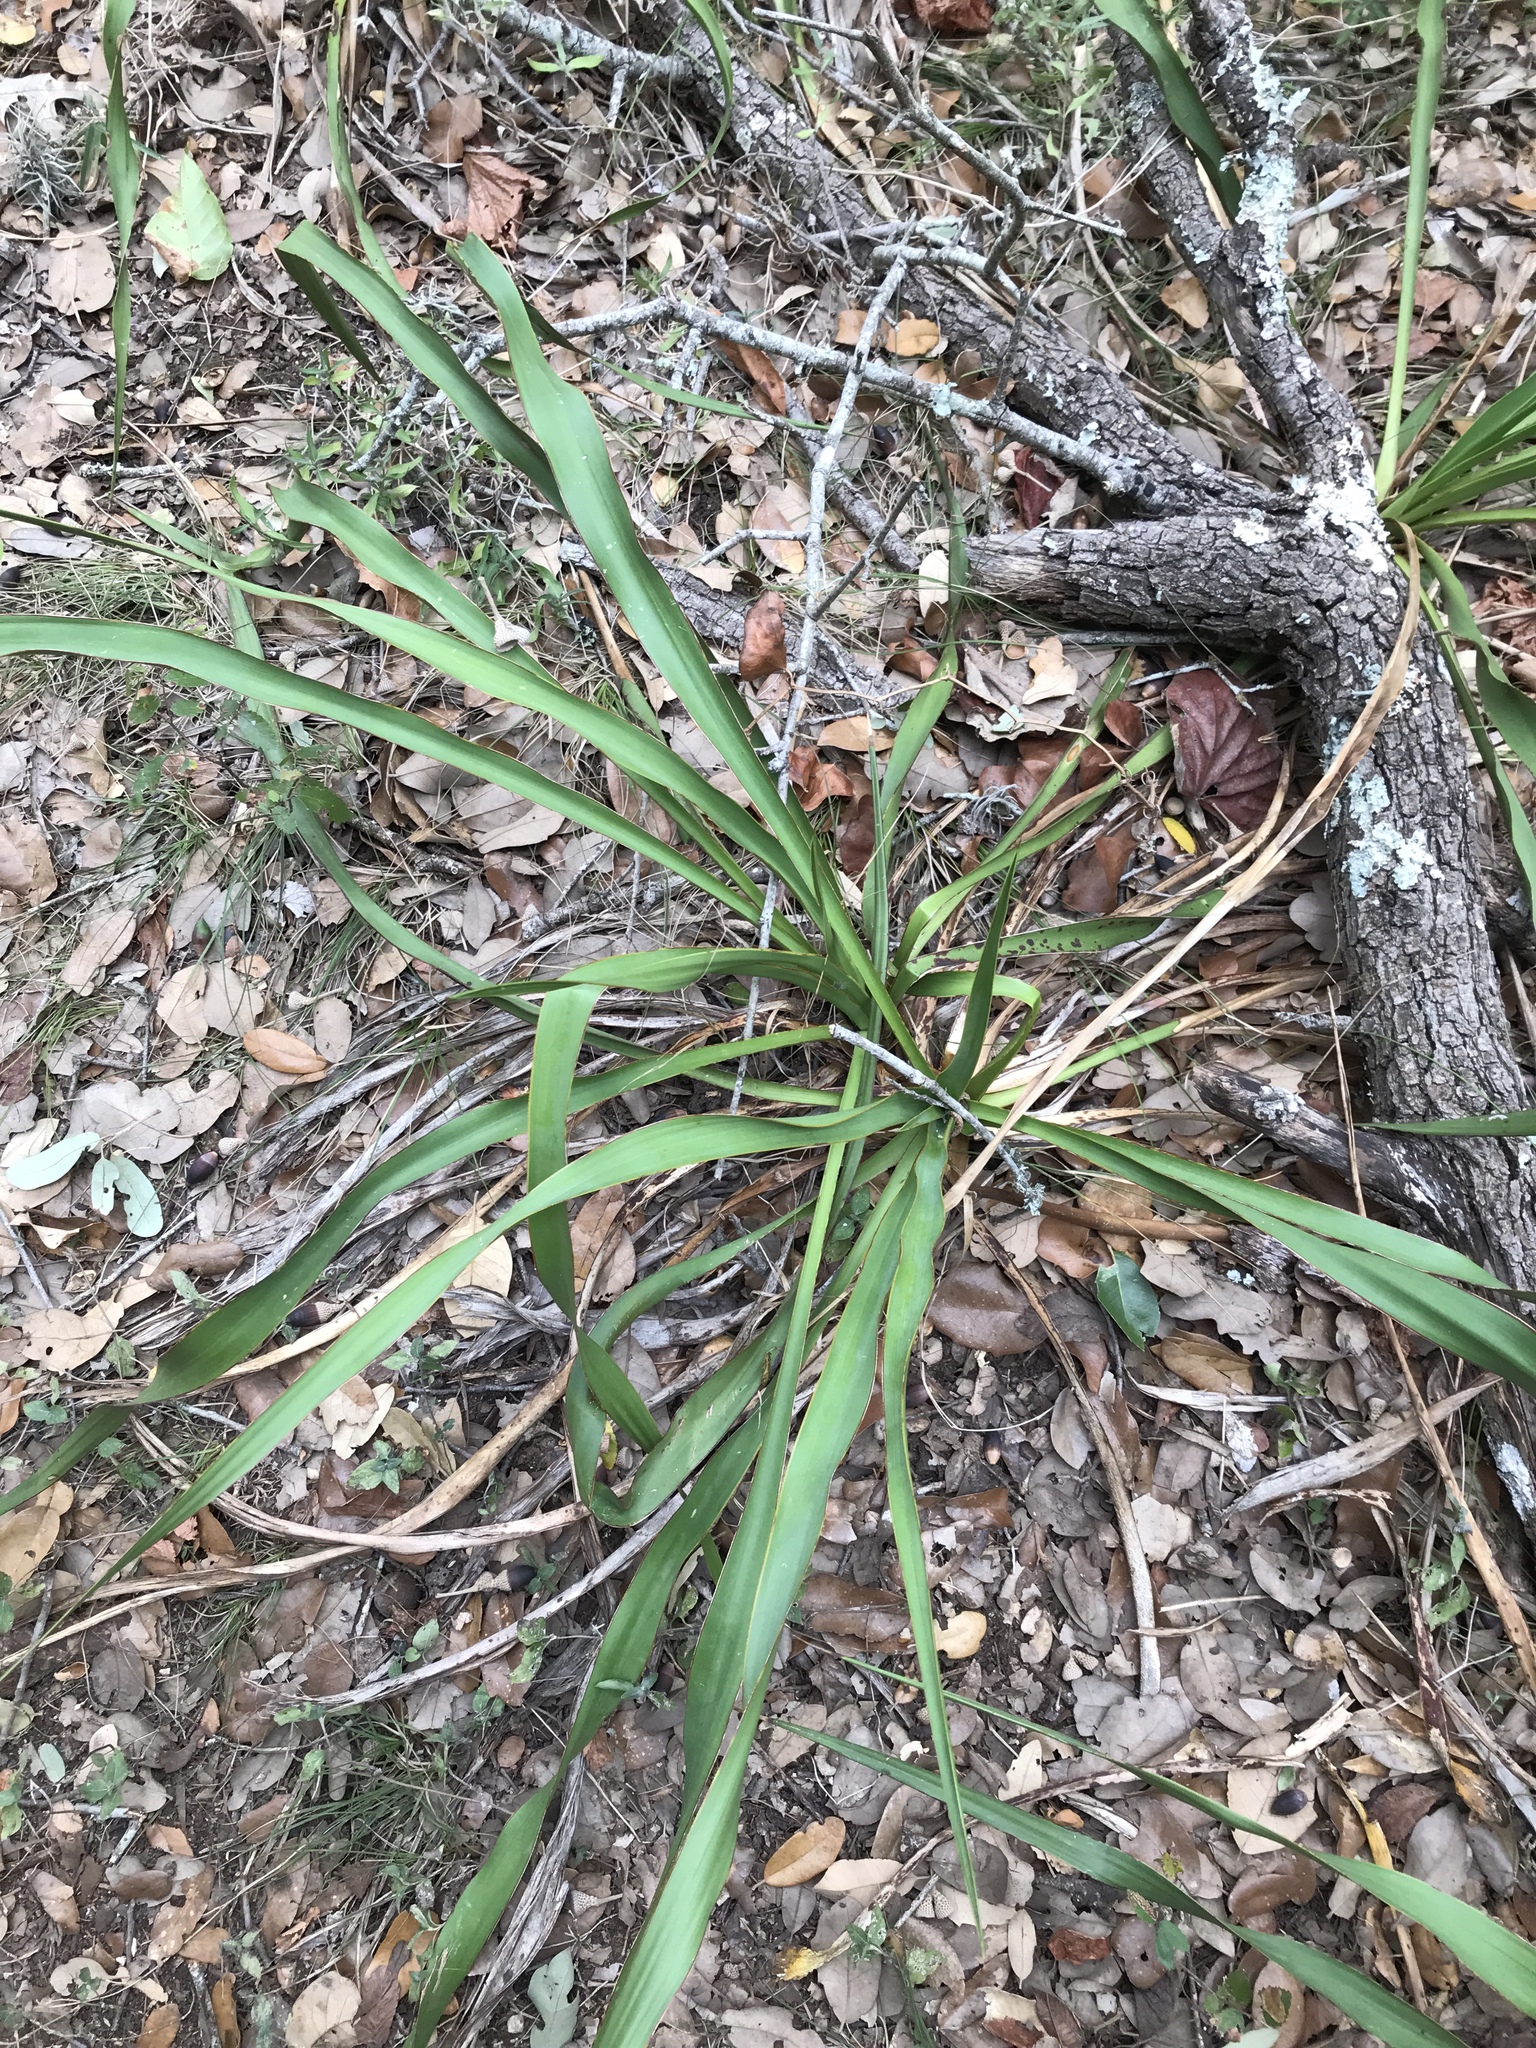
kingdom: Plantae
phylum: Tracheophyta
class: Liliopsida
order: Asparagales
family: Asparagaceae
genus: Yucca
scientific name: Yucca rupicola
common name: Twisted-leaf spanish-dagger
